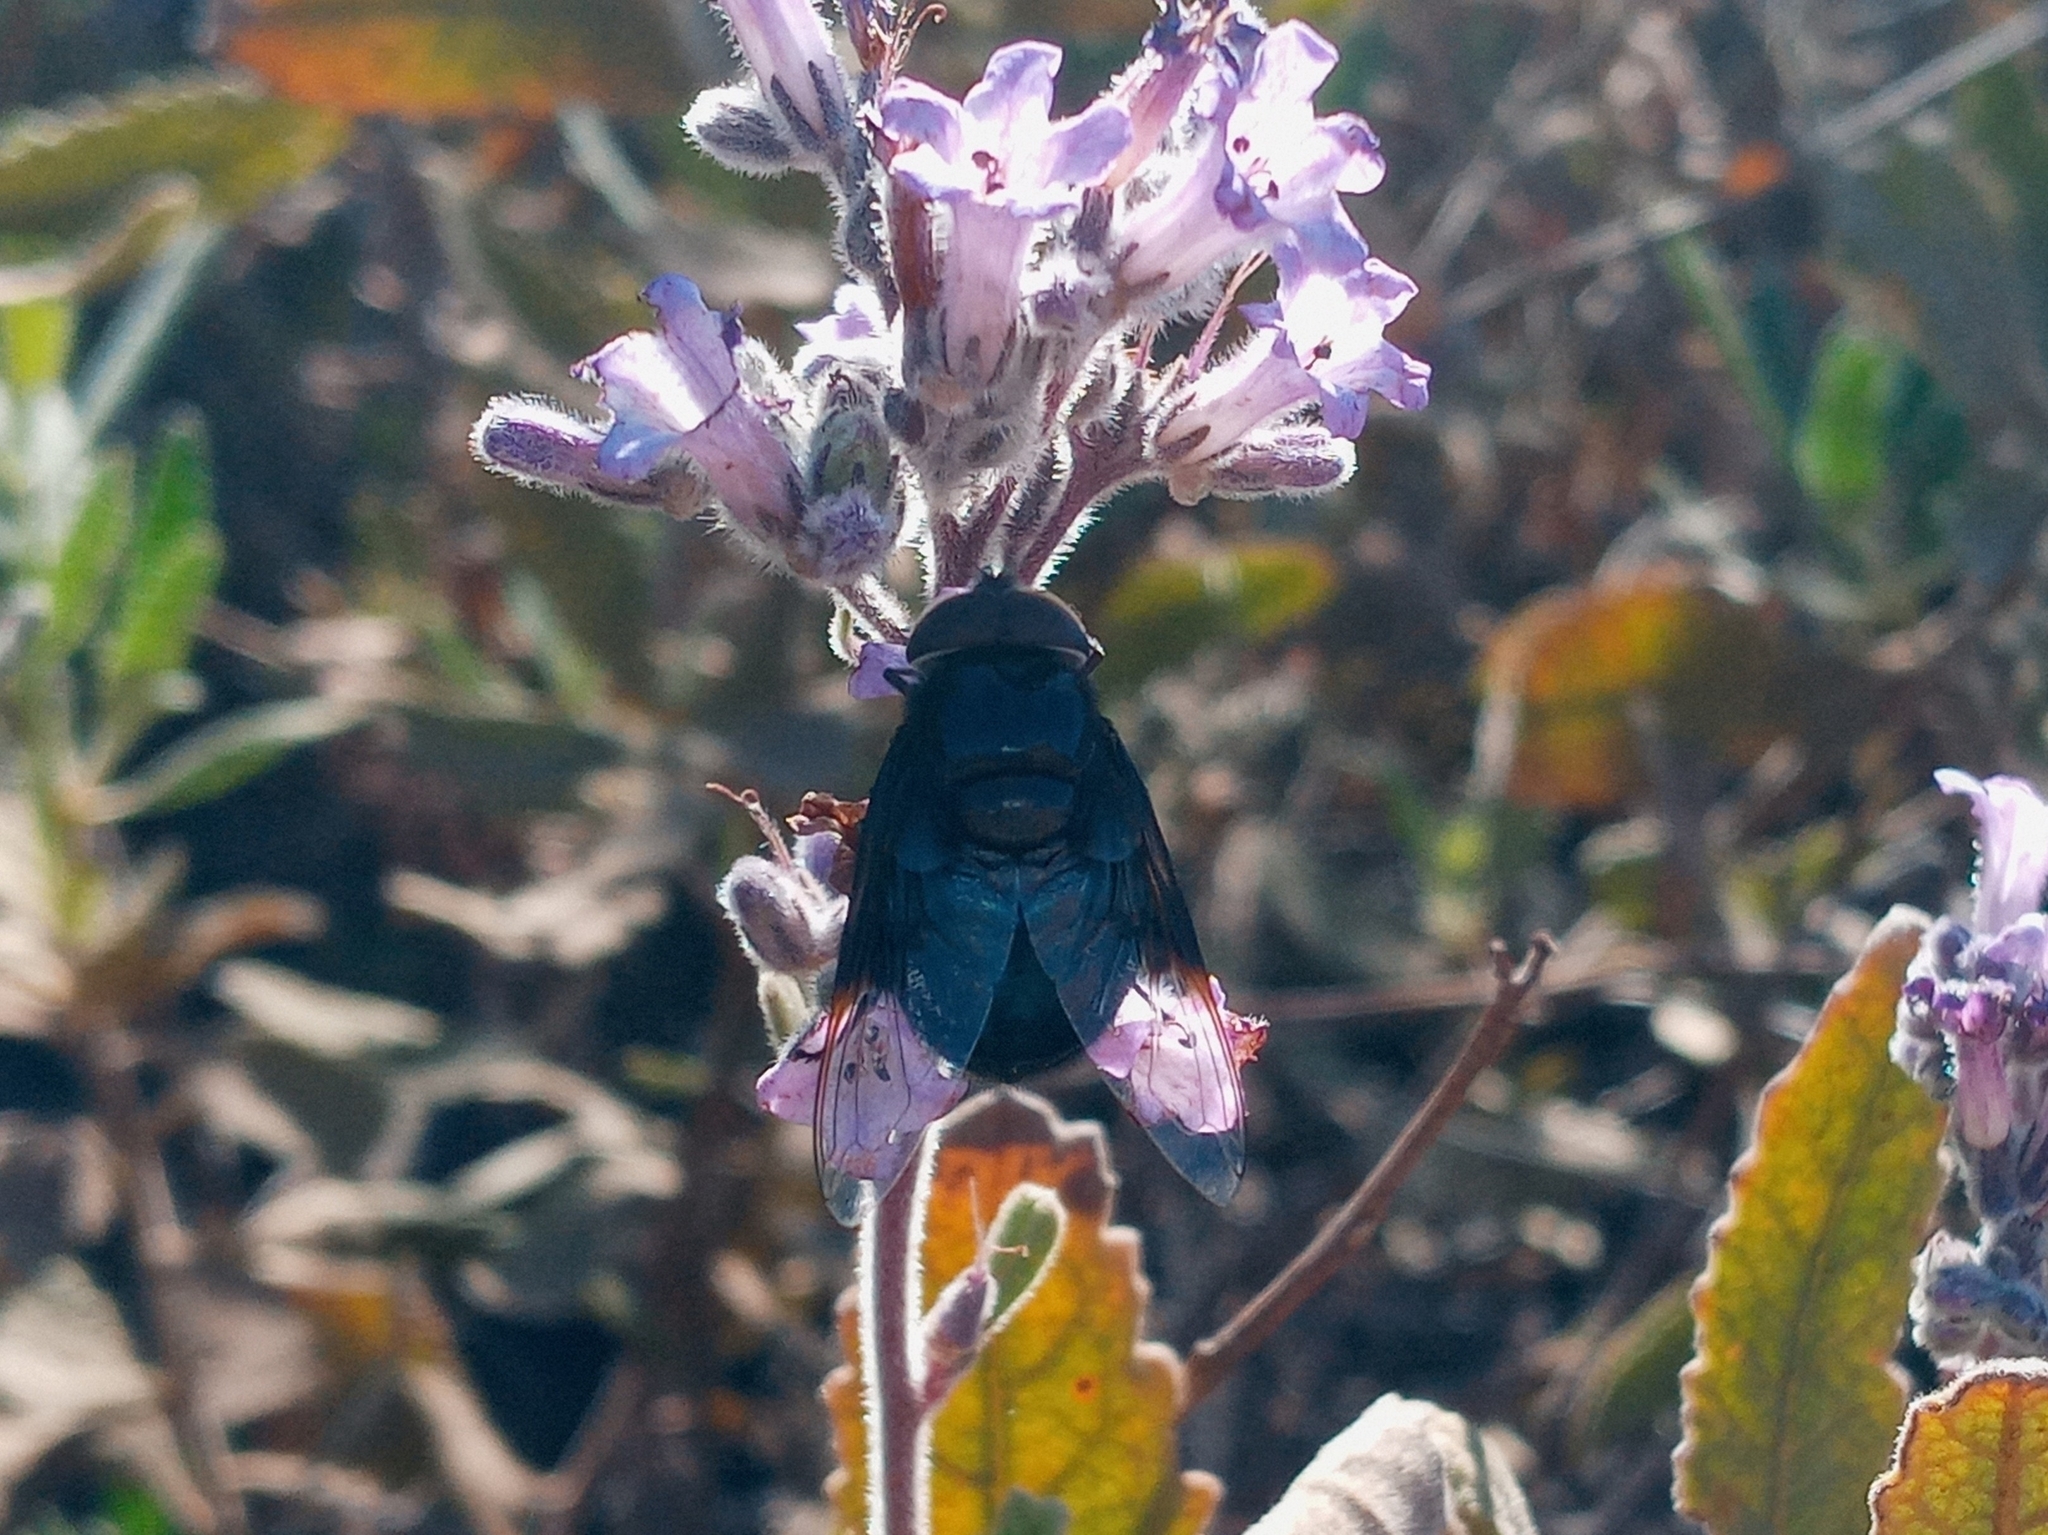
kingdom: Animalia
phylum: Arthropoda
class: Insecta
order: Diptera
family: Syrphidae
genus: Copestylum
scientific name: Copestylum mexicanum
